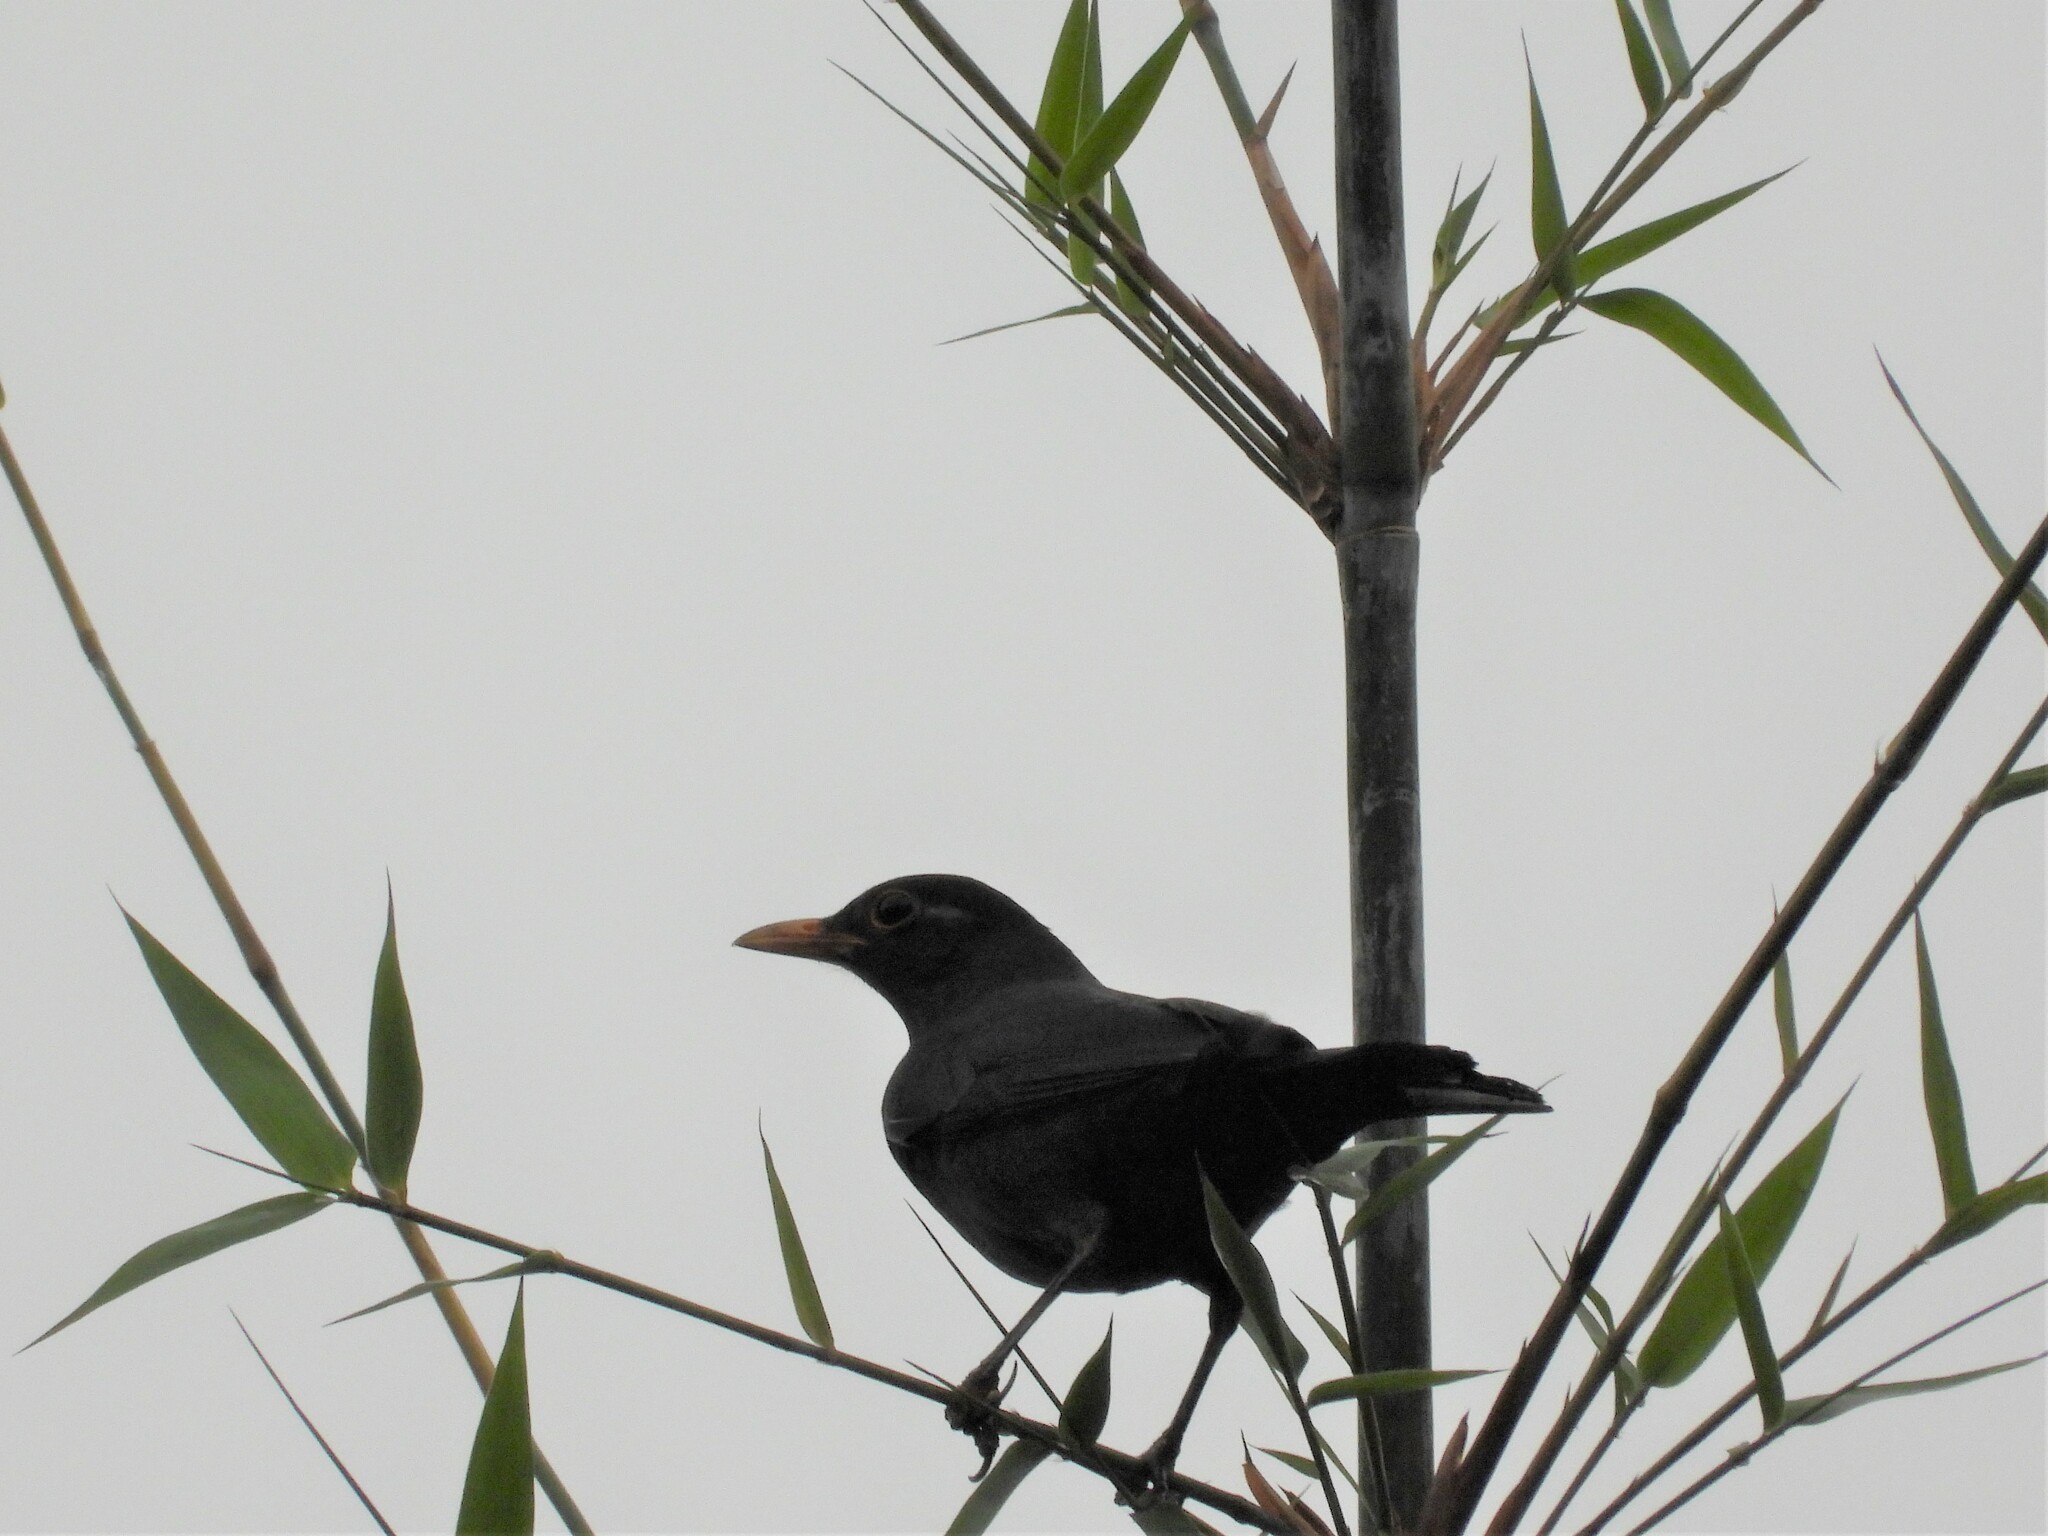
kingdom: Animalia
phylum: Chordata
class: Aves
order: Passeriformes
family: Turdidae
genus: Turdus
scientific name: Turdus mandarinus
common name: Chinese blackbird
